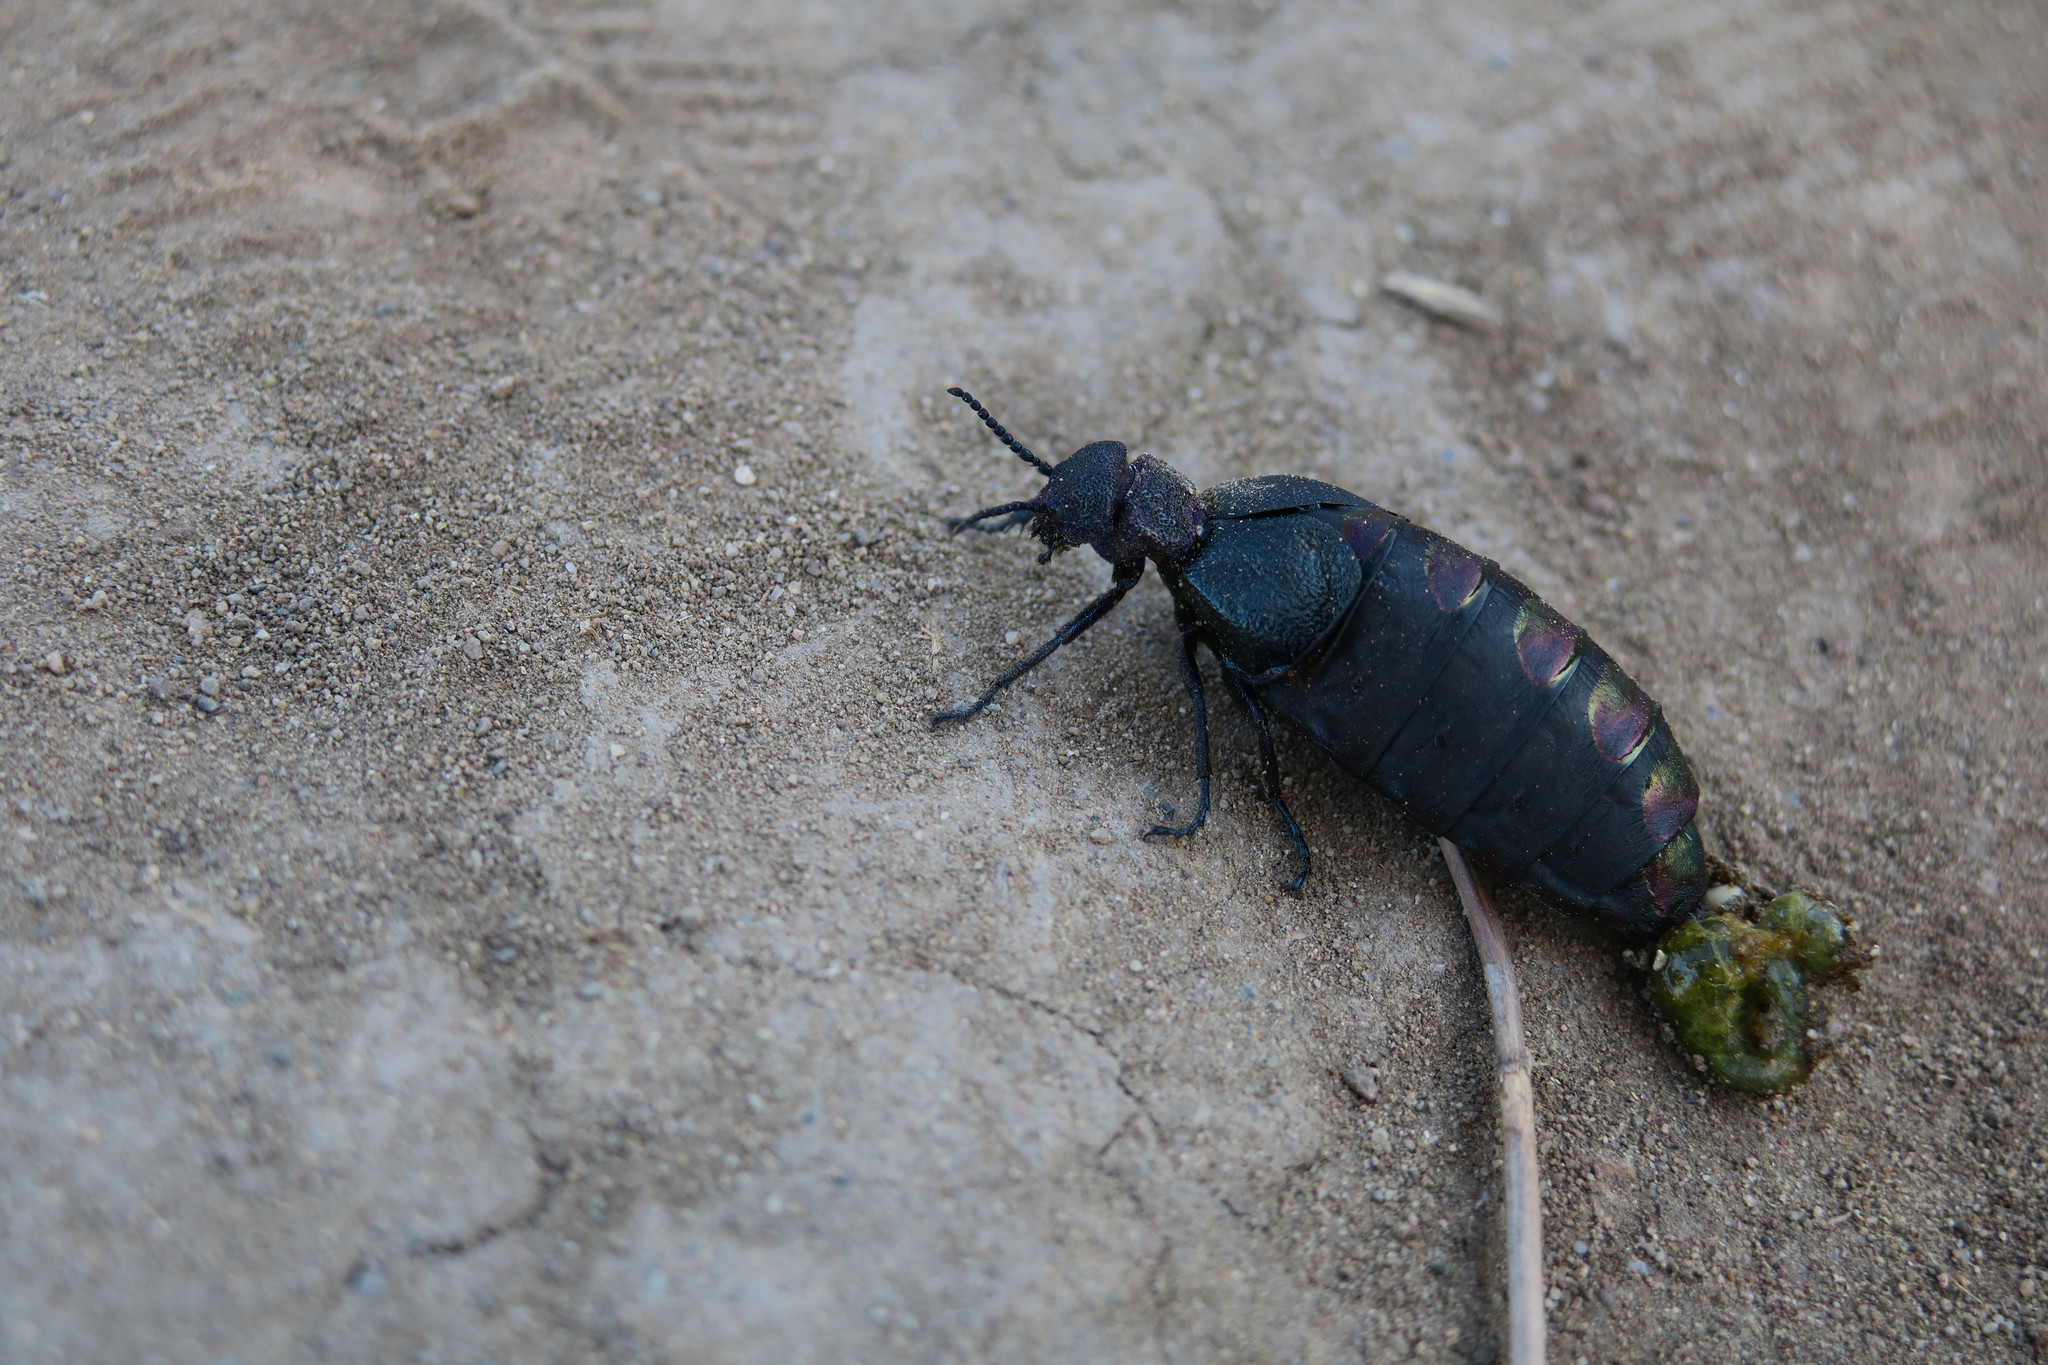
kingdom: Animalia
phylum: Arthropoda
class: Insecta
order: Coleoptera
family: Meloidae
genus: Meloe
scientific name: Meloe variegatus
